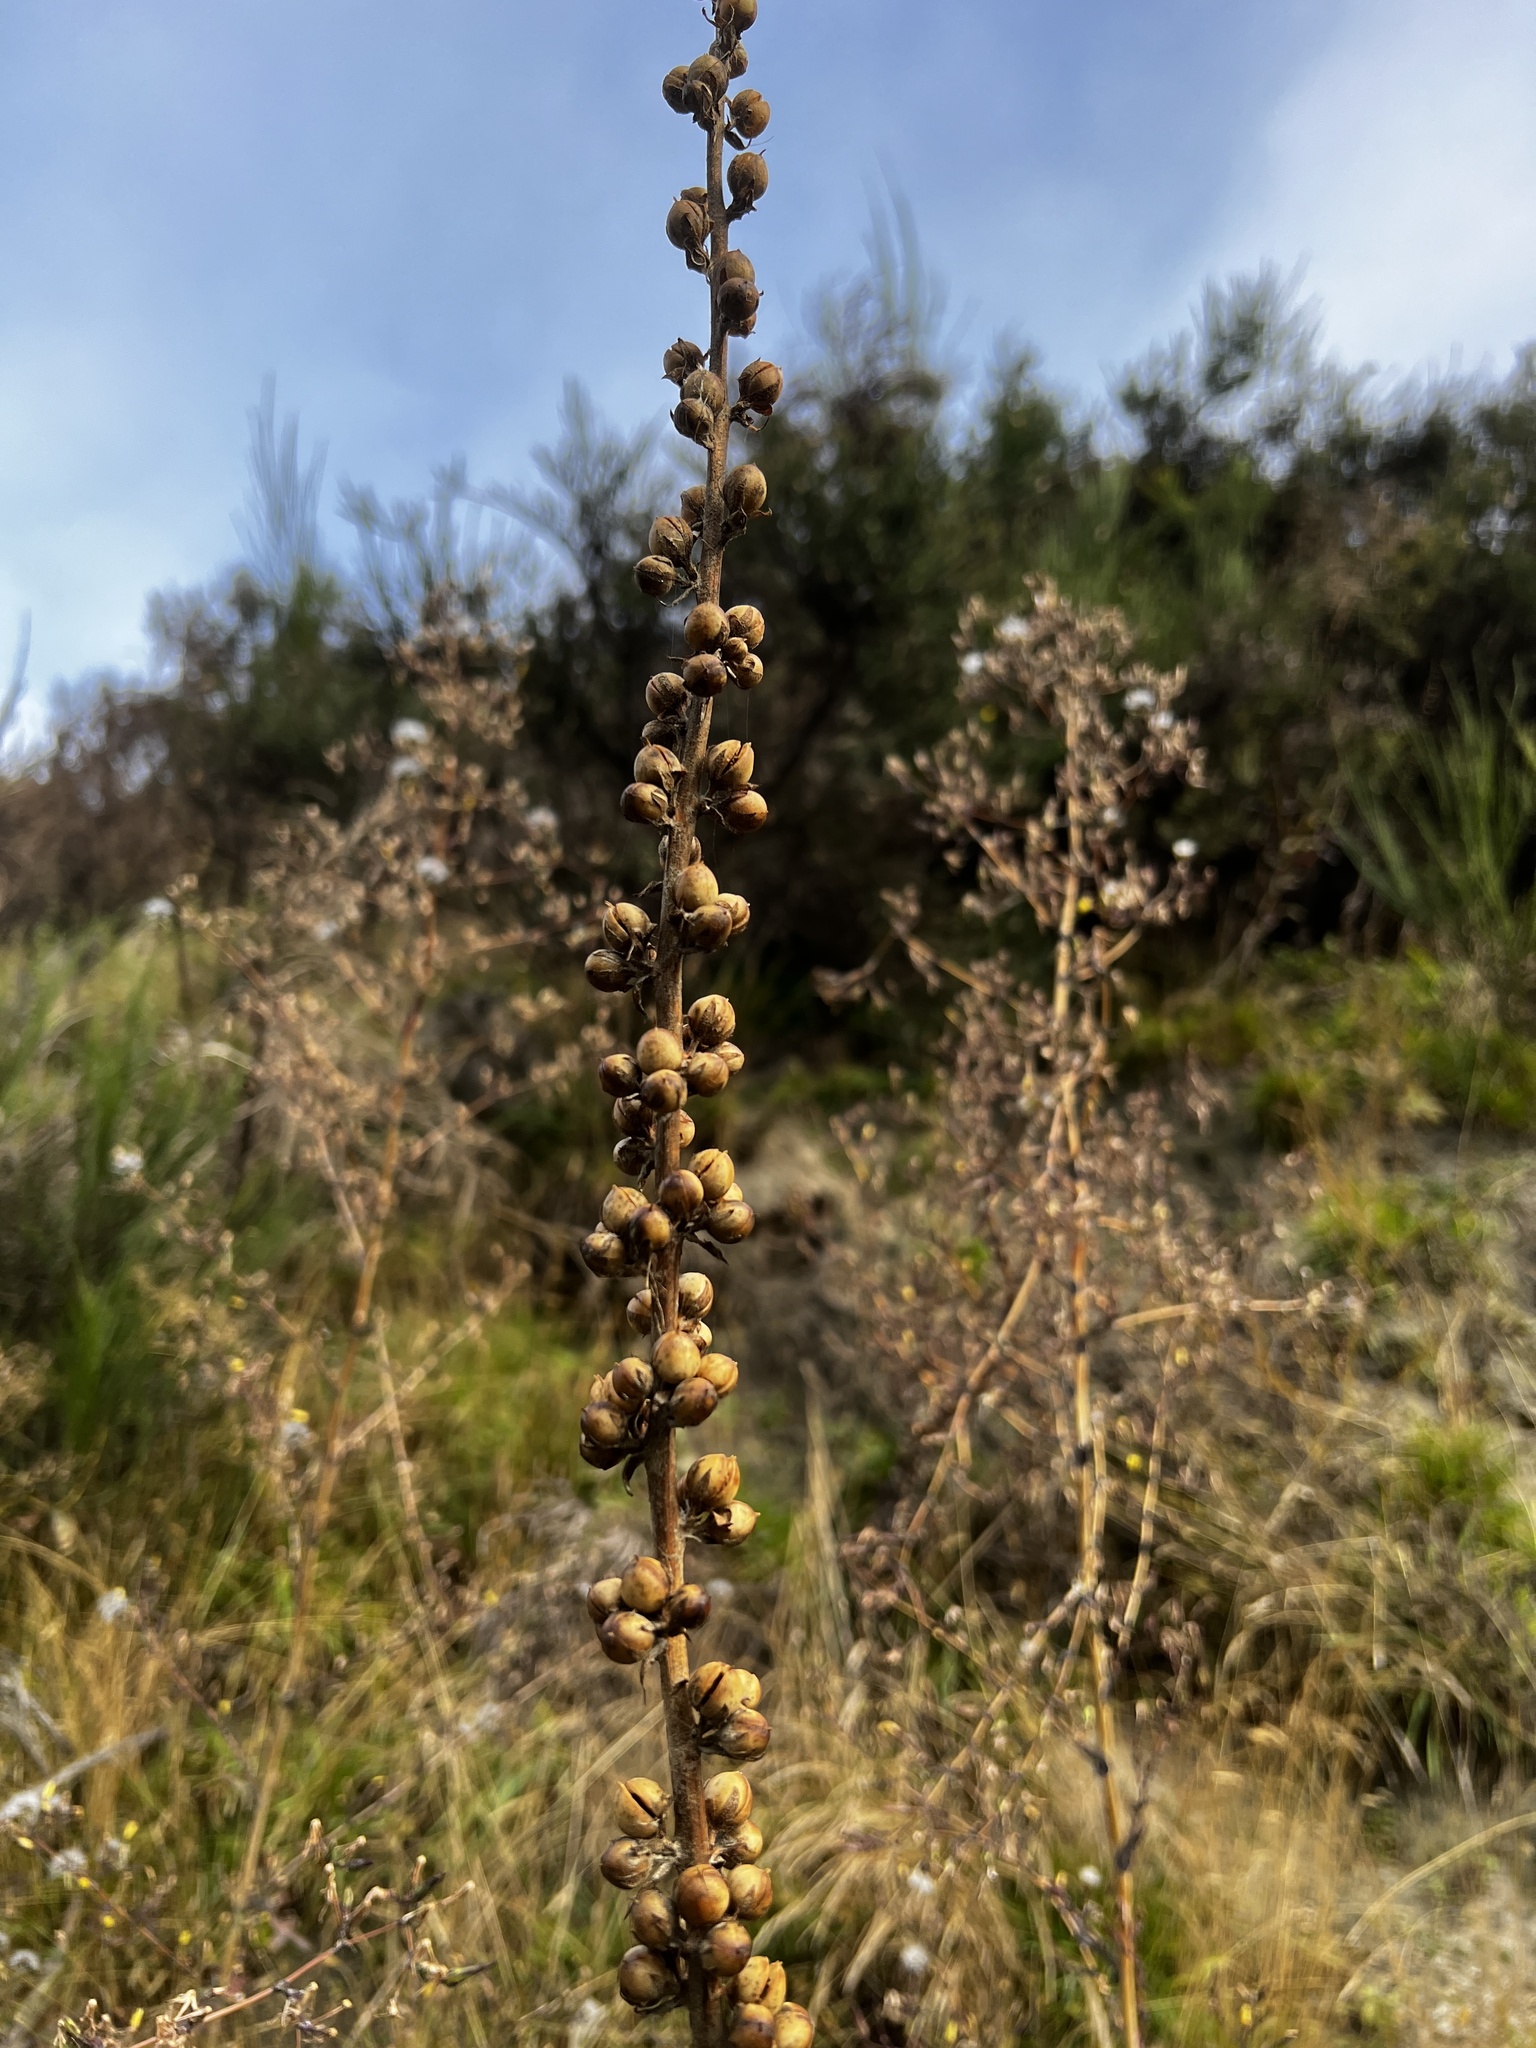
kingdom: Plantae
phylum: Tracheophyta
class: Magnoliopsida
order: Lamiales
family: Scrophulariaceae
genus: Verbascum
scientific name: Verbascum virgatum
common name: Twiggy mullein
